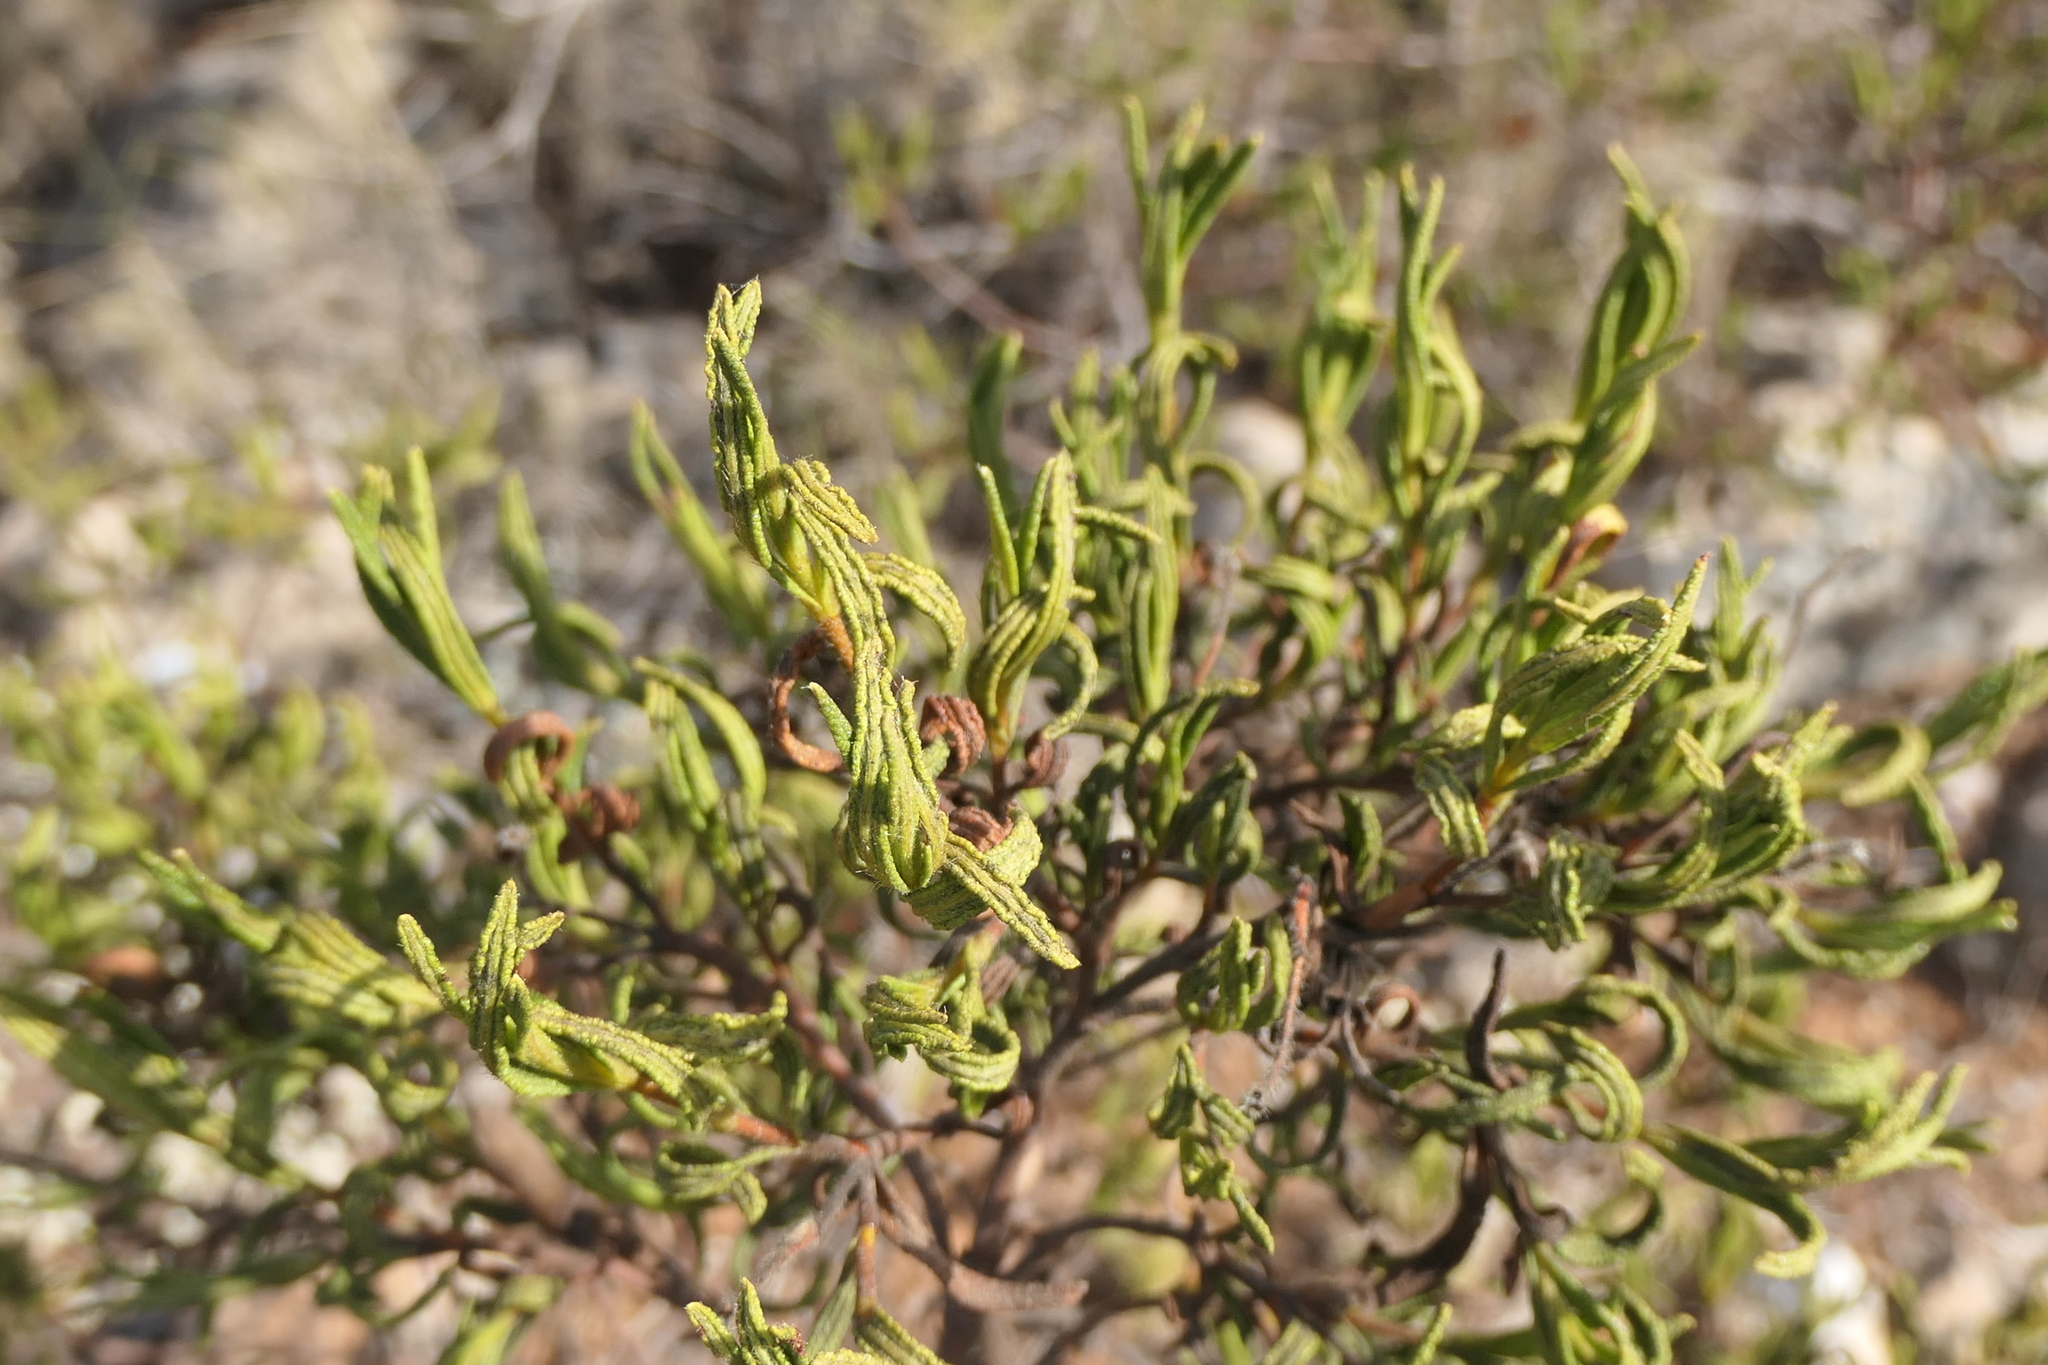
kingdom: Plantae
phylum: Tracheophyta
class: Magnoliopsida
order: Malvales
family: Cistaceae
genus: Cistus
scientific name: Cistus monspeliensis
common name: Montpelier cistus
